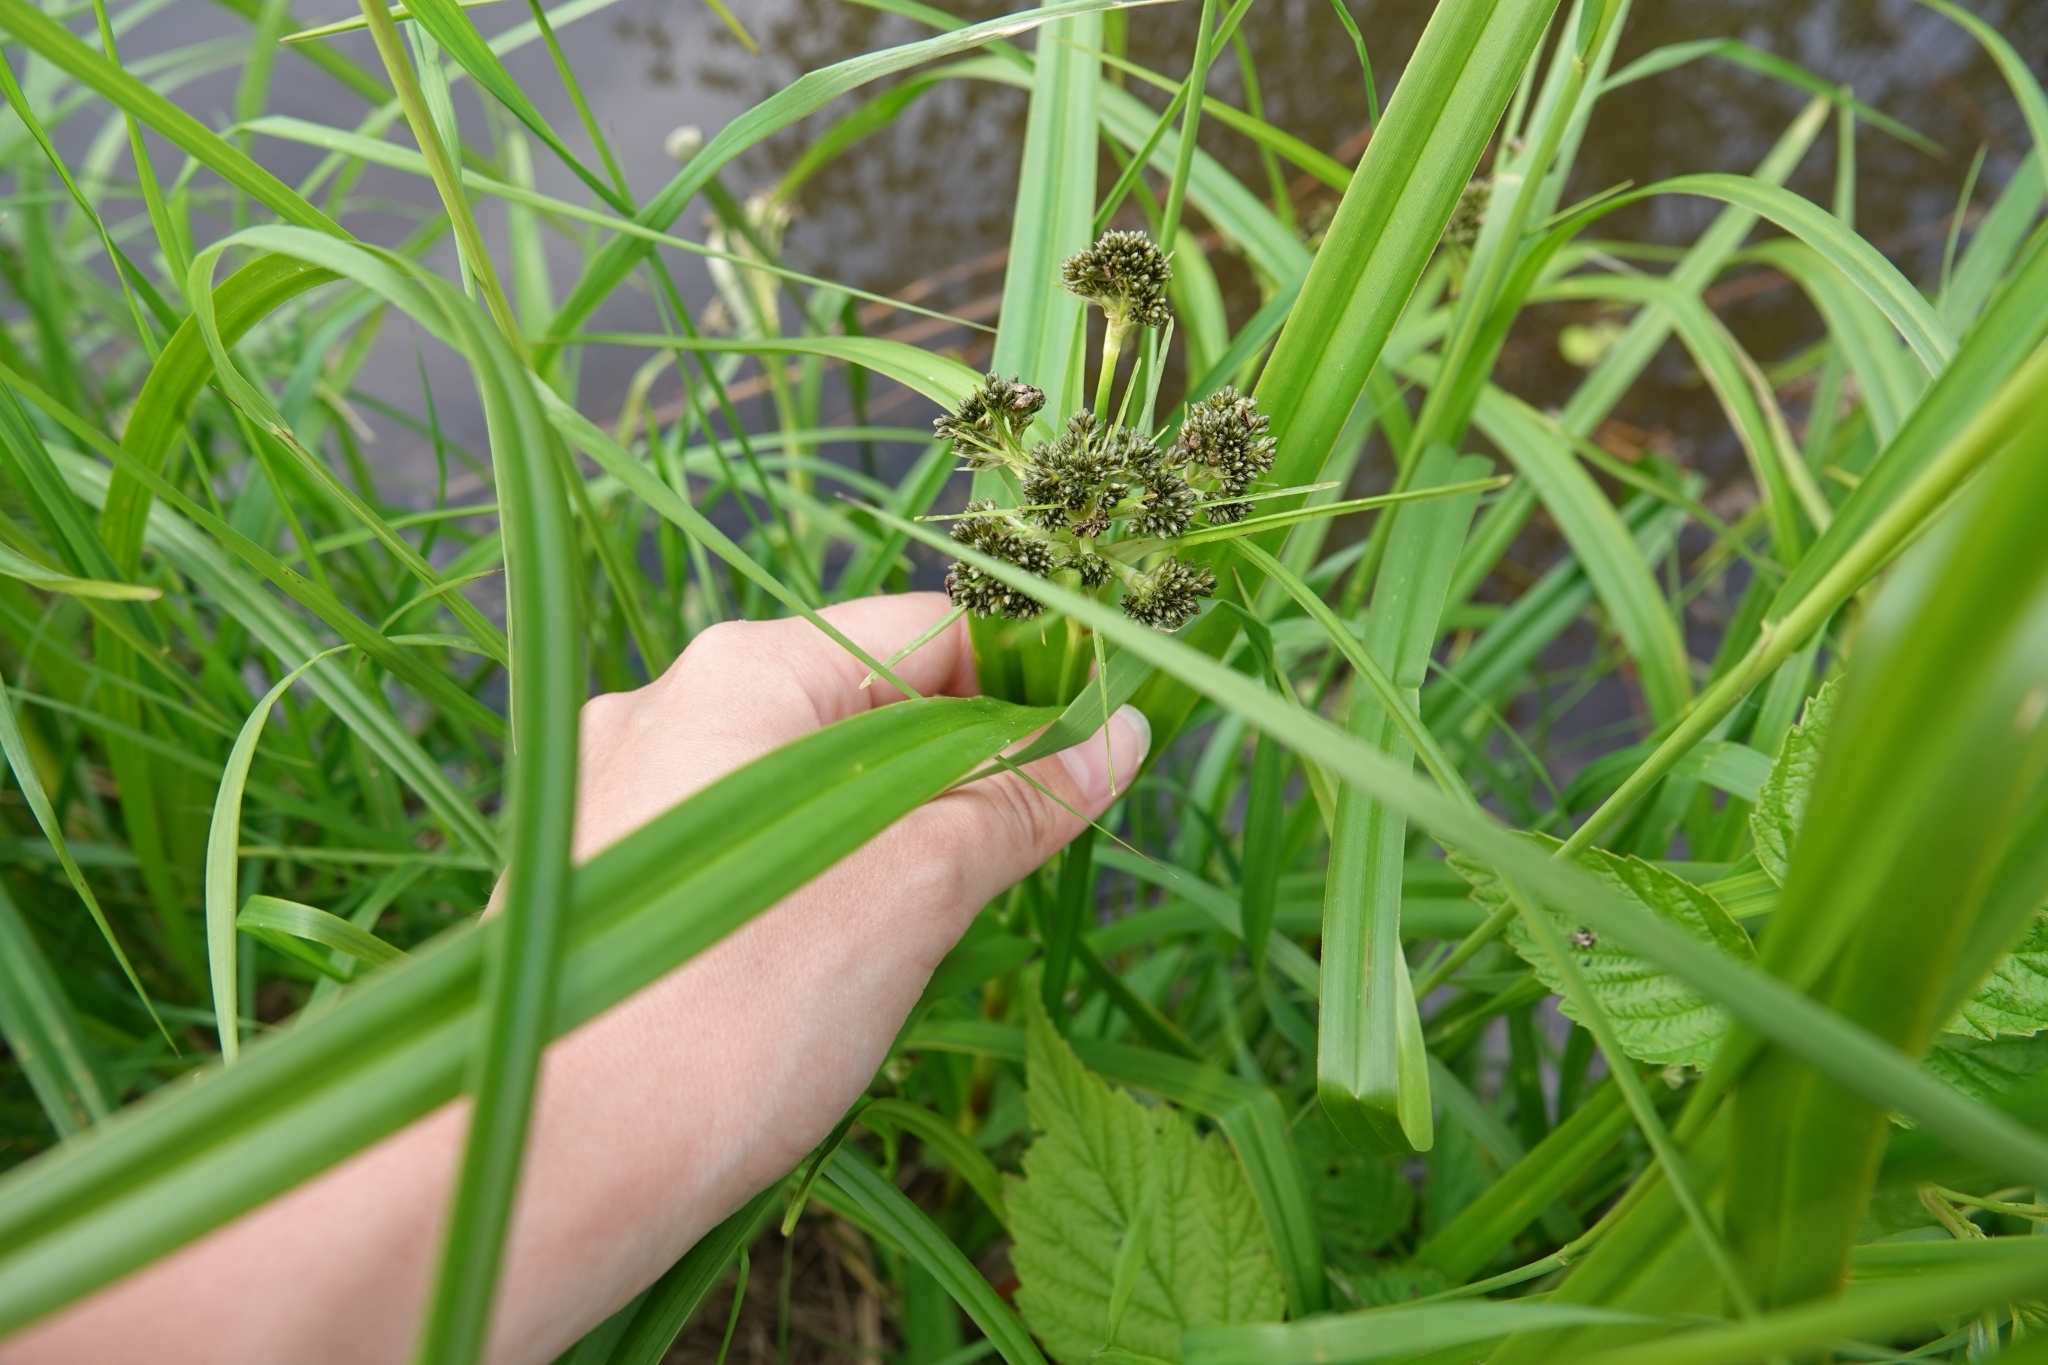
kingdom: Plantae
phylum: Tracheophyta
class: Liliopsida
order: Poales
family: Cyperaceae
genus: Scirpus
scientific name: Scirpus sylvaticus
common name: Wood club-rush
